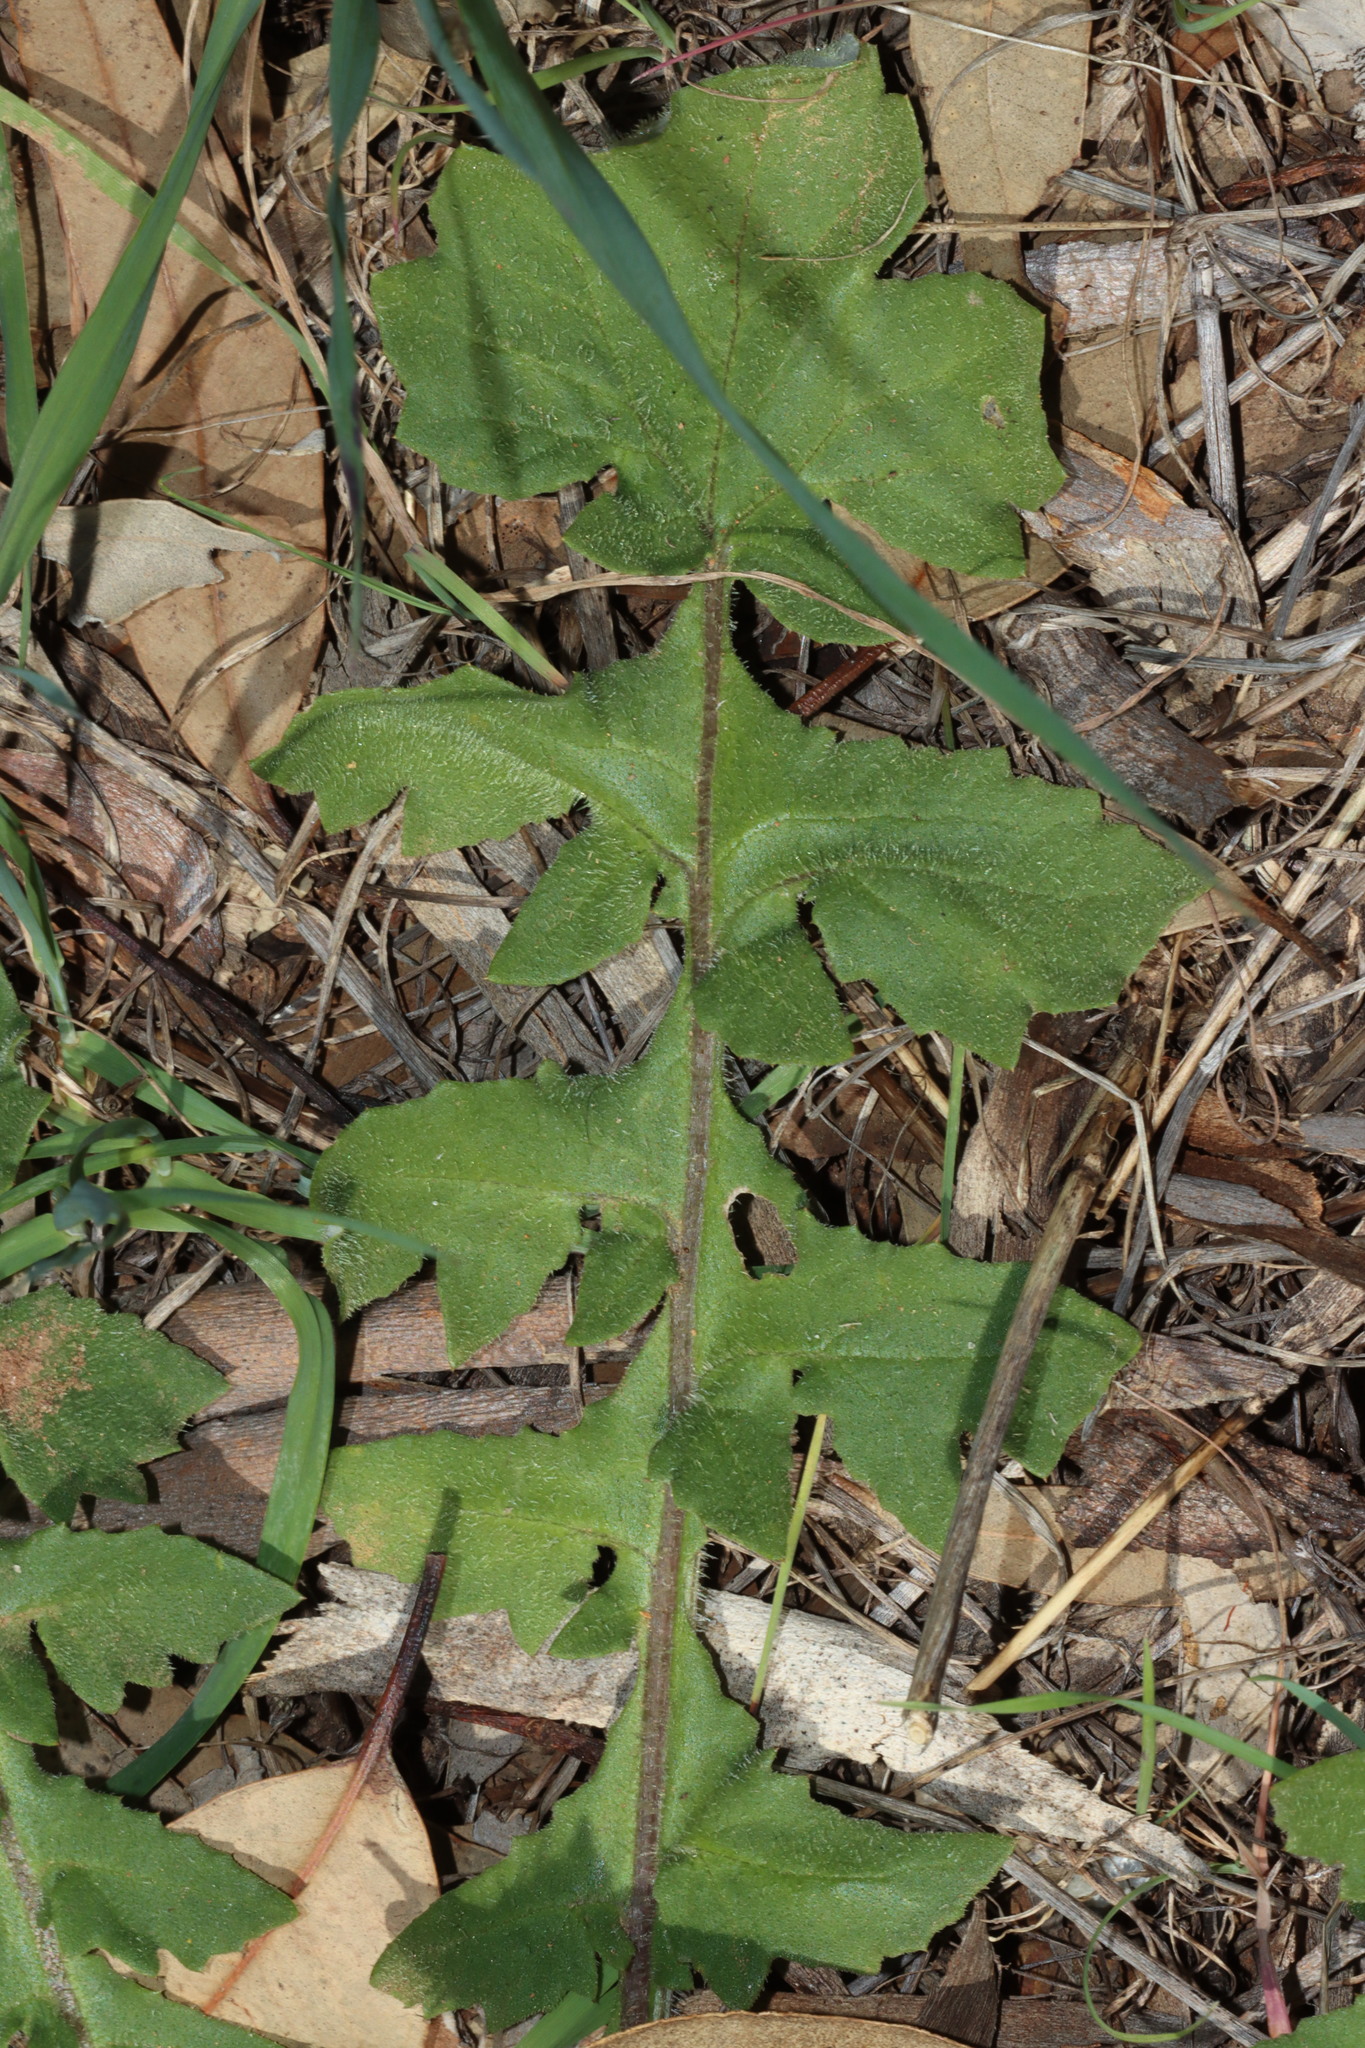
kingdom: Plantae
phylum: Tracheophyta
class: Magnoliopsida
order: Asterales
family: Asteraceae
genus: Arctotheca
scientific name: Arctotheca calendula
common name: Capeweed
